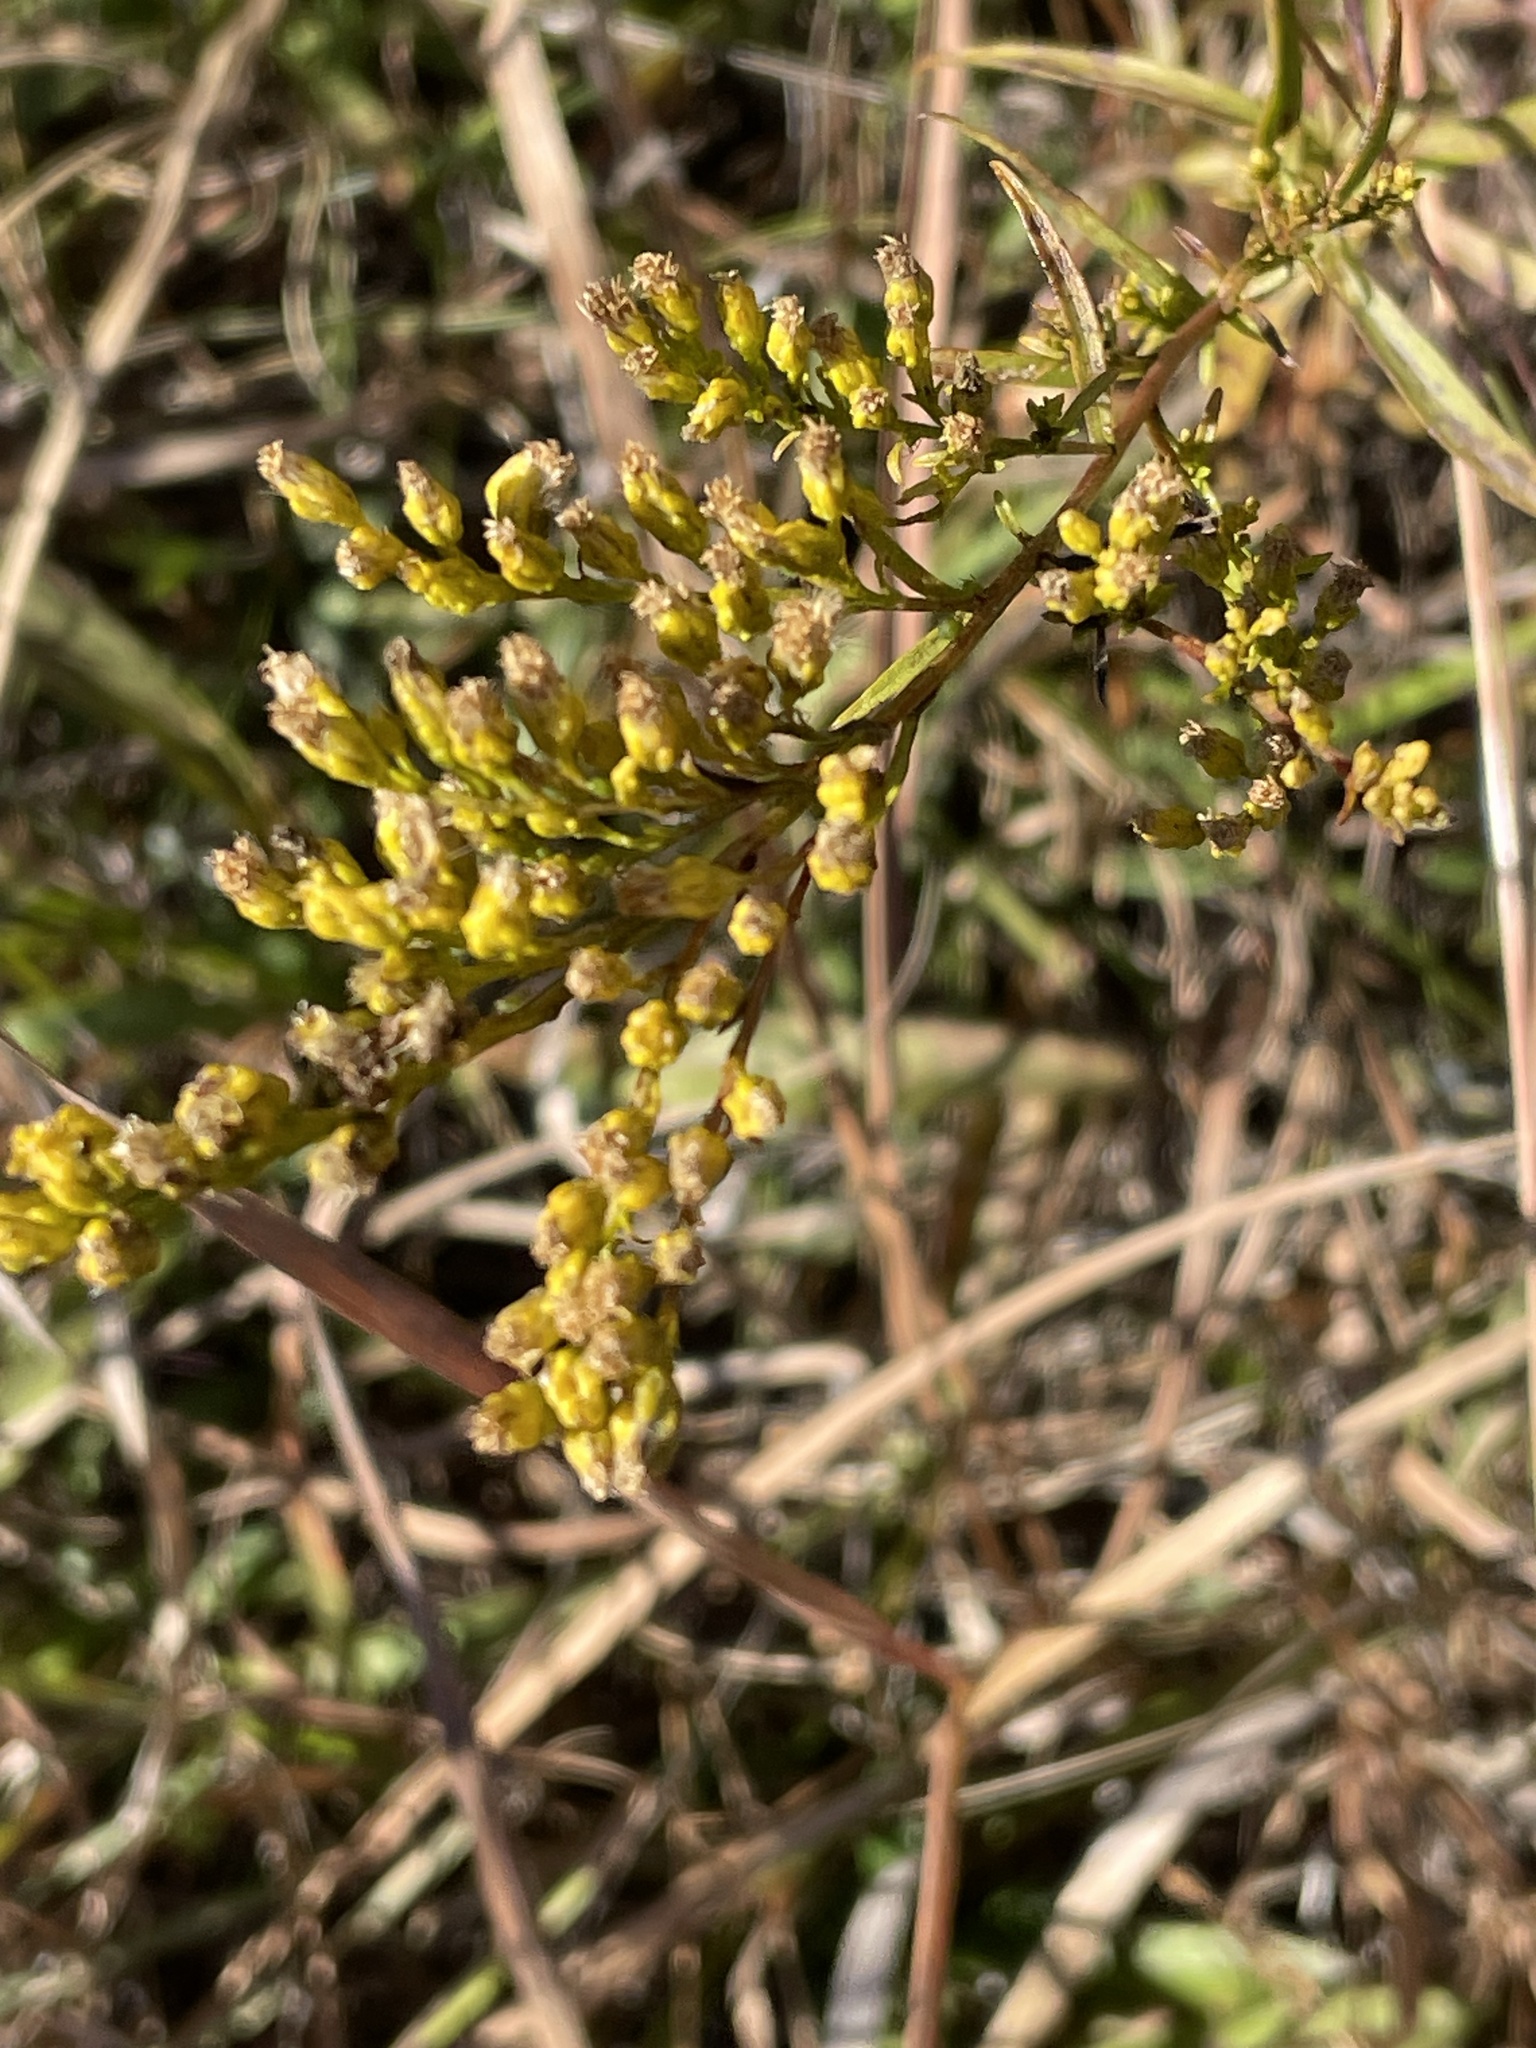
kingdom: Plantae
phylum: Tracheophyta
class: Magnoliopsida
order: Asterales
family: Asteraceae
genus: Solidago
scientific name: Solidago pinetorum
